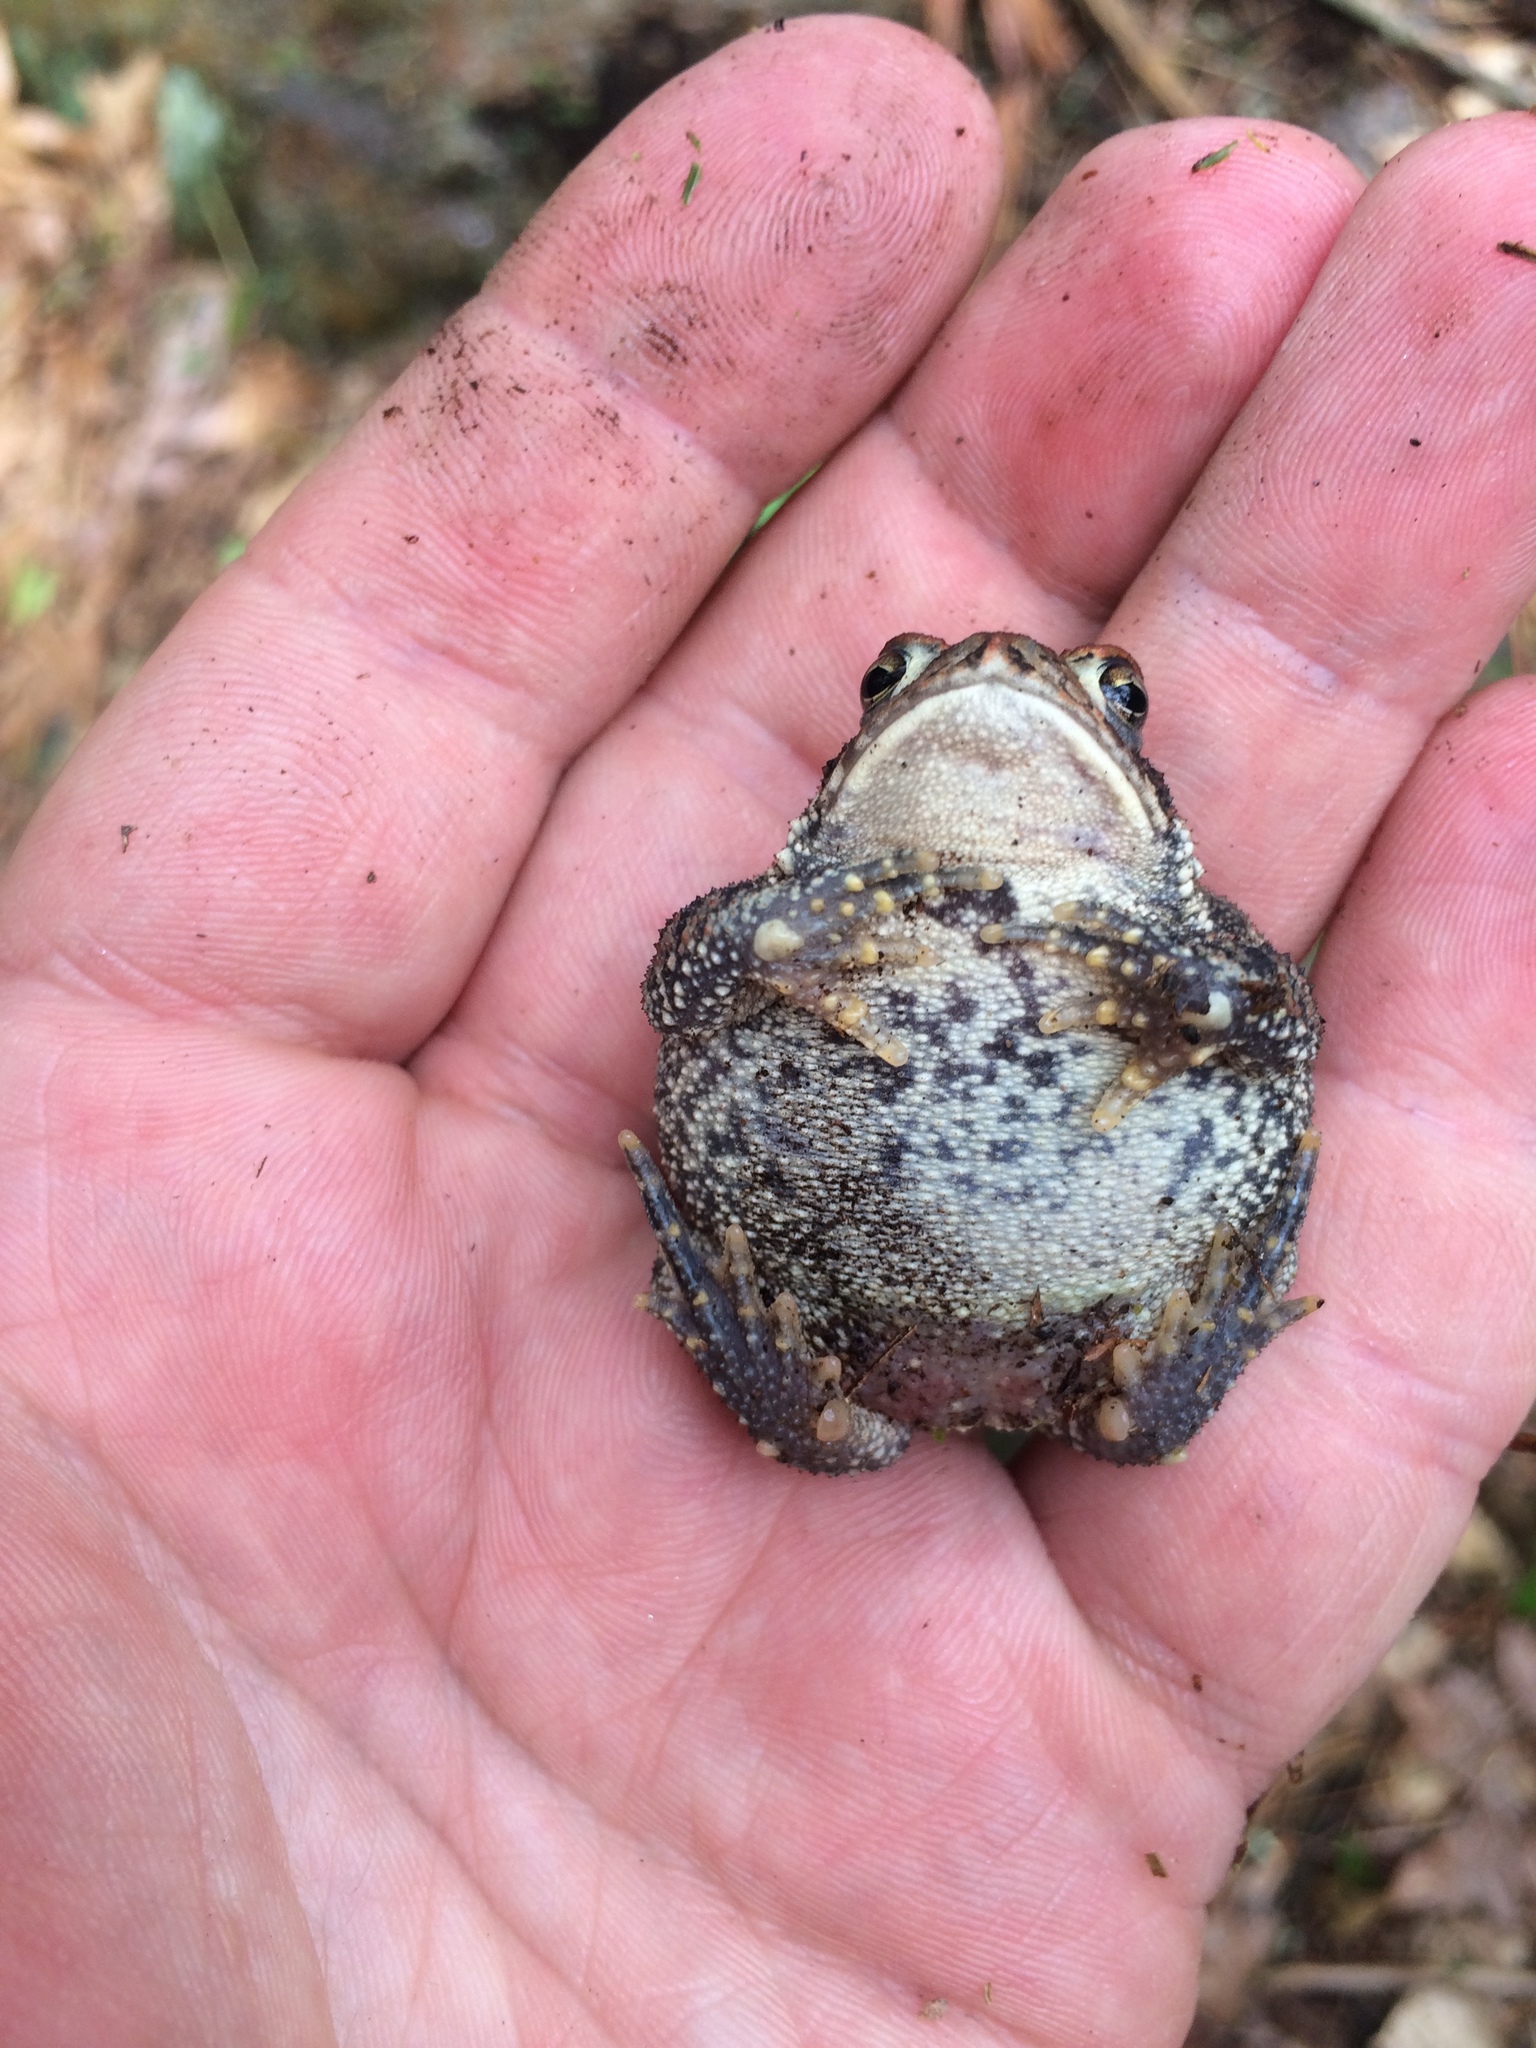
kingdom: Animalia
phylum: Chordata
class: Amphibia
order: Anura
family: Bufonidae
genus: Anaxyrus
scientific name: Anaxyrus americanus
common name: American toad
